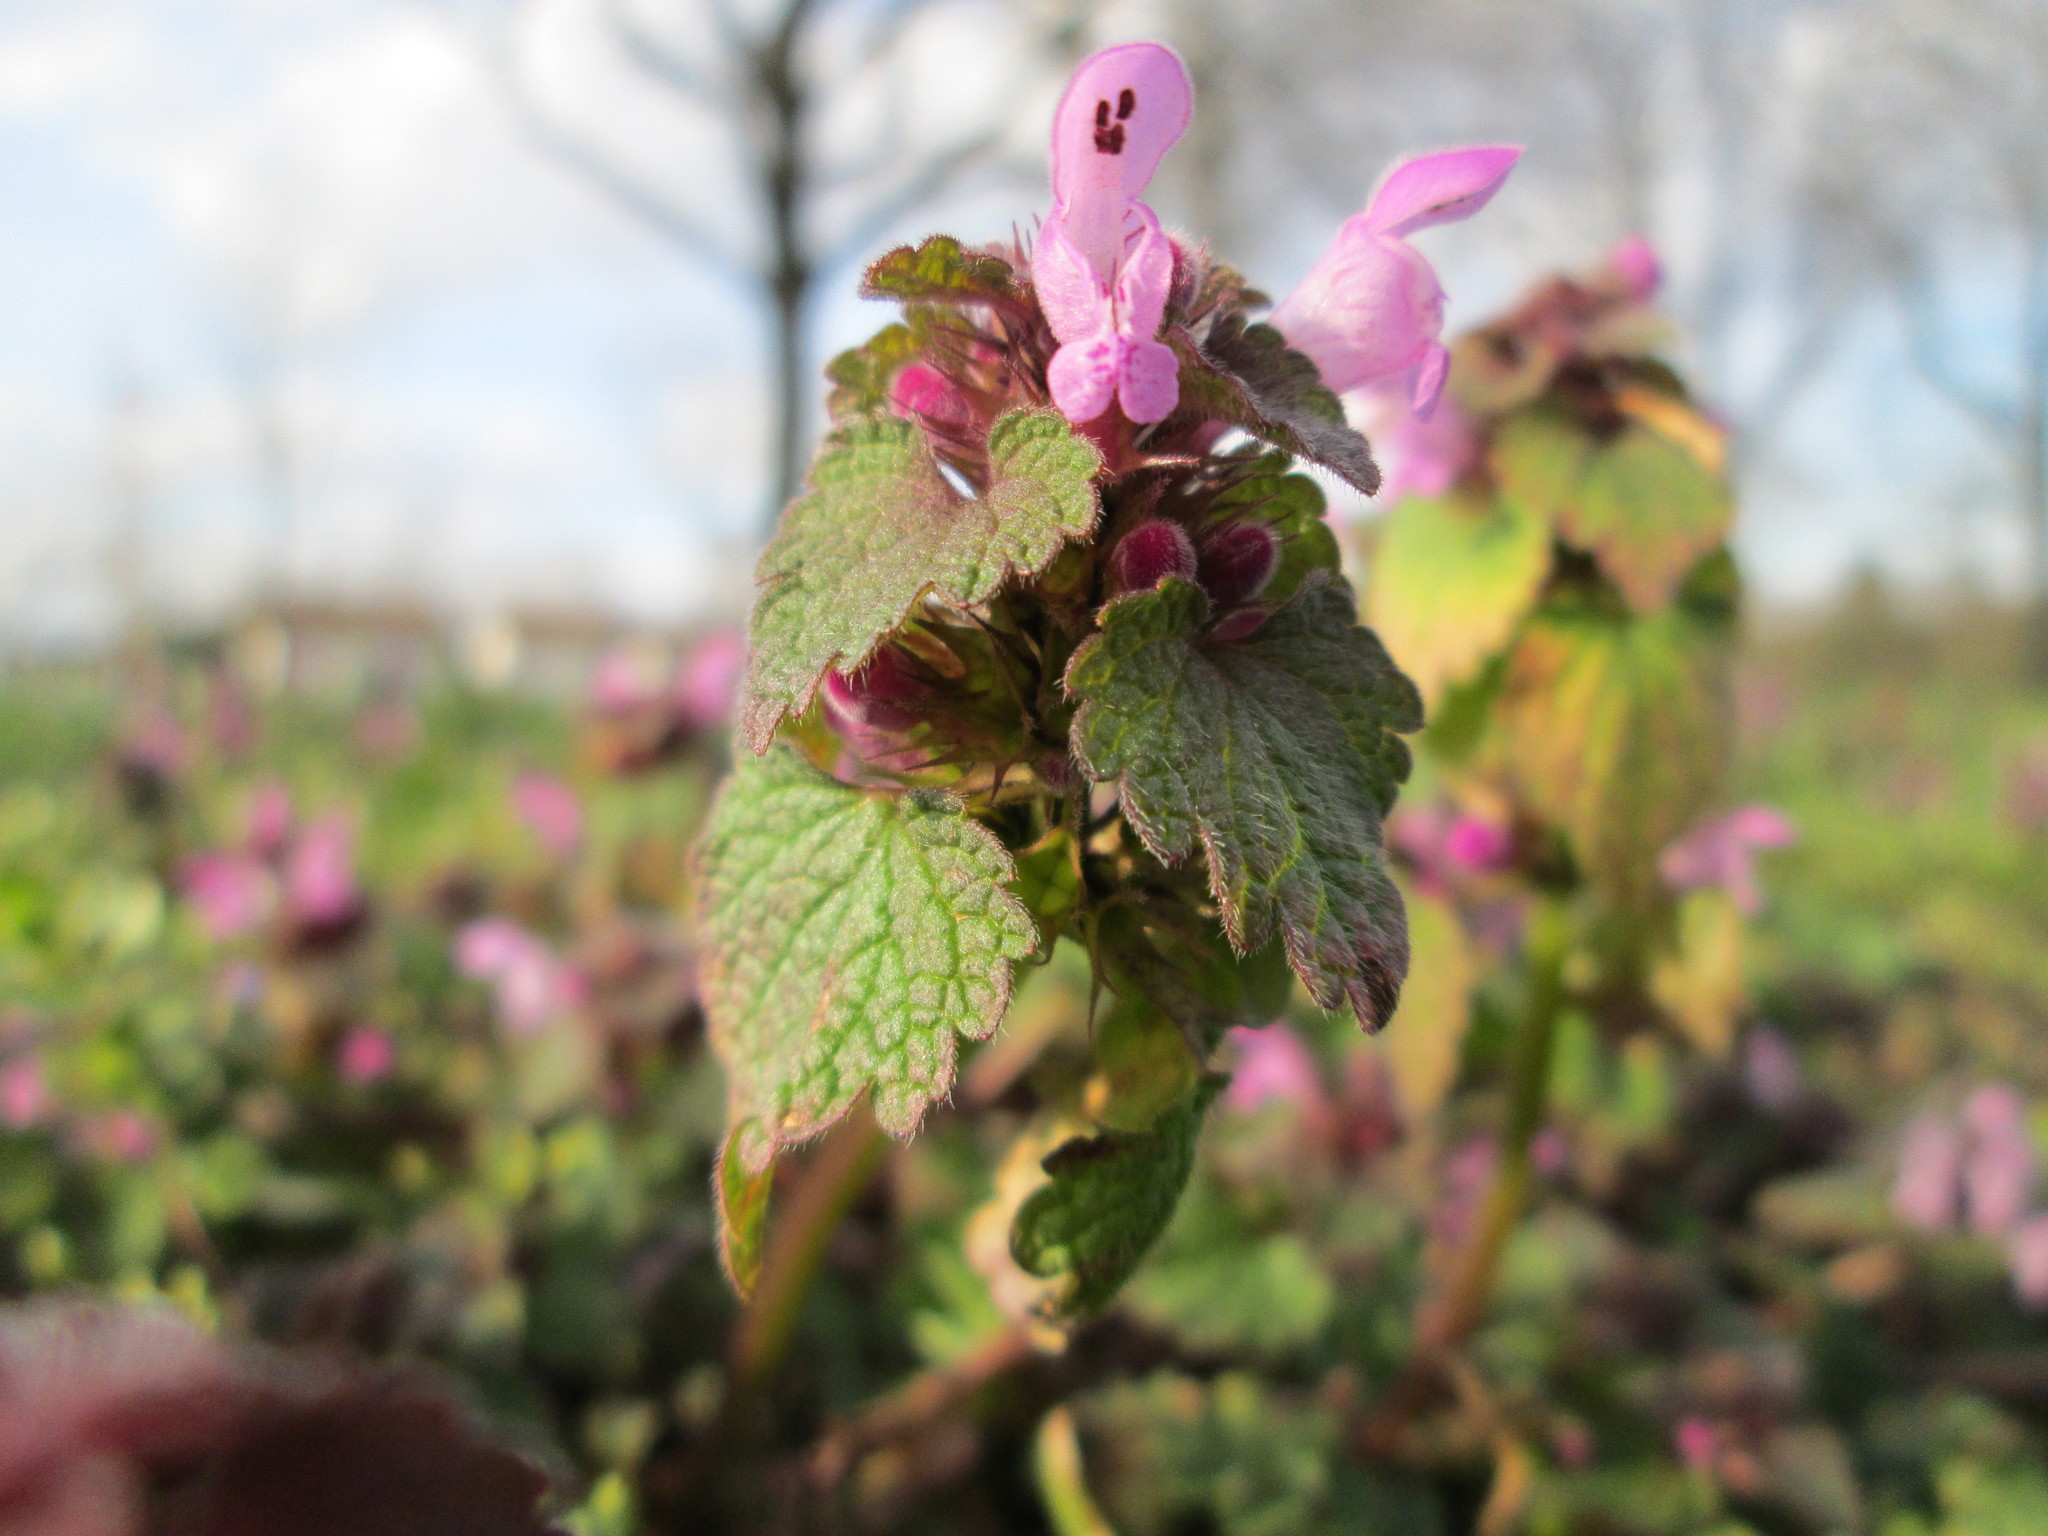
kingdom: Plantae
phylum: Tracheophyta
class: Magnoliopsida
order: Lamiales
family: Lamiaceae
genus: Lamium
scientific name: Lamium purpureum
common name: Red dead-nettle
